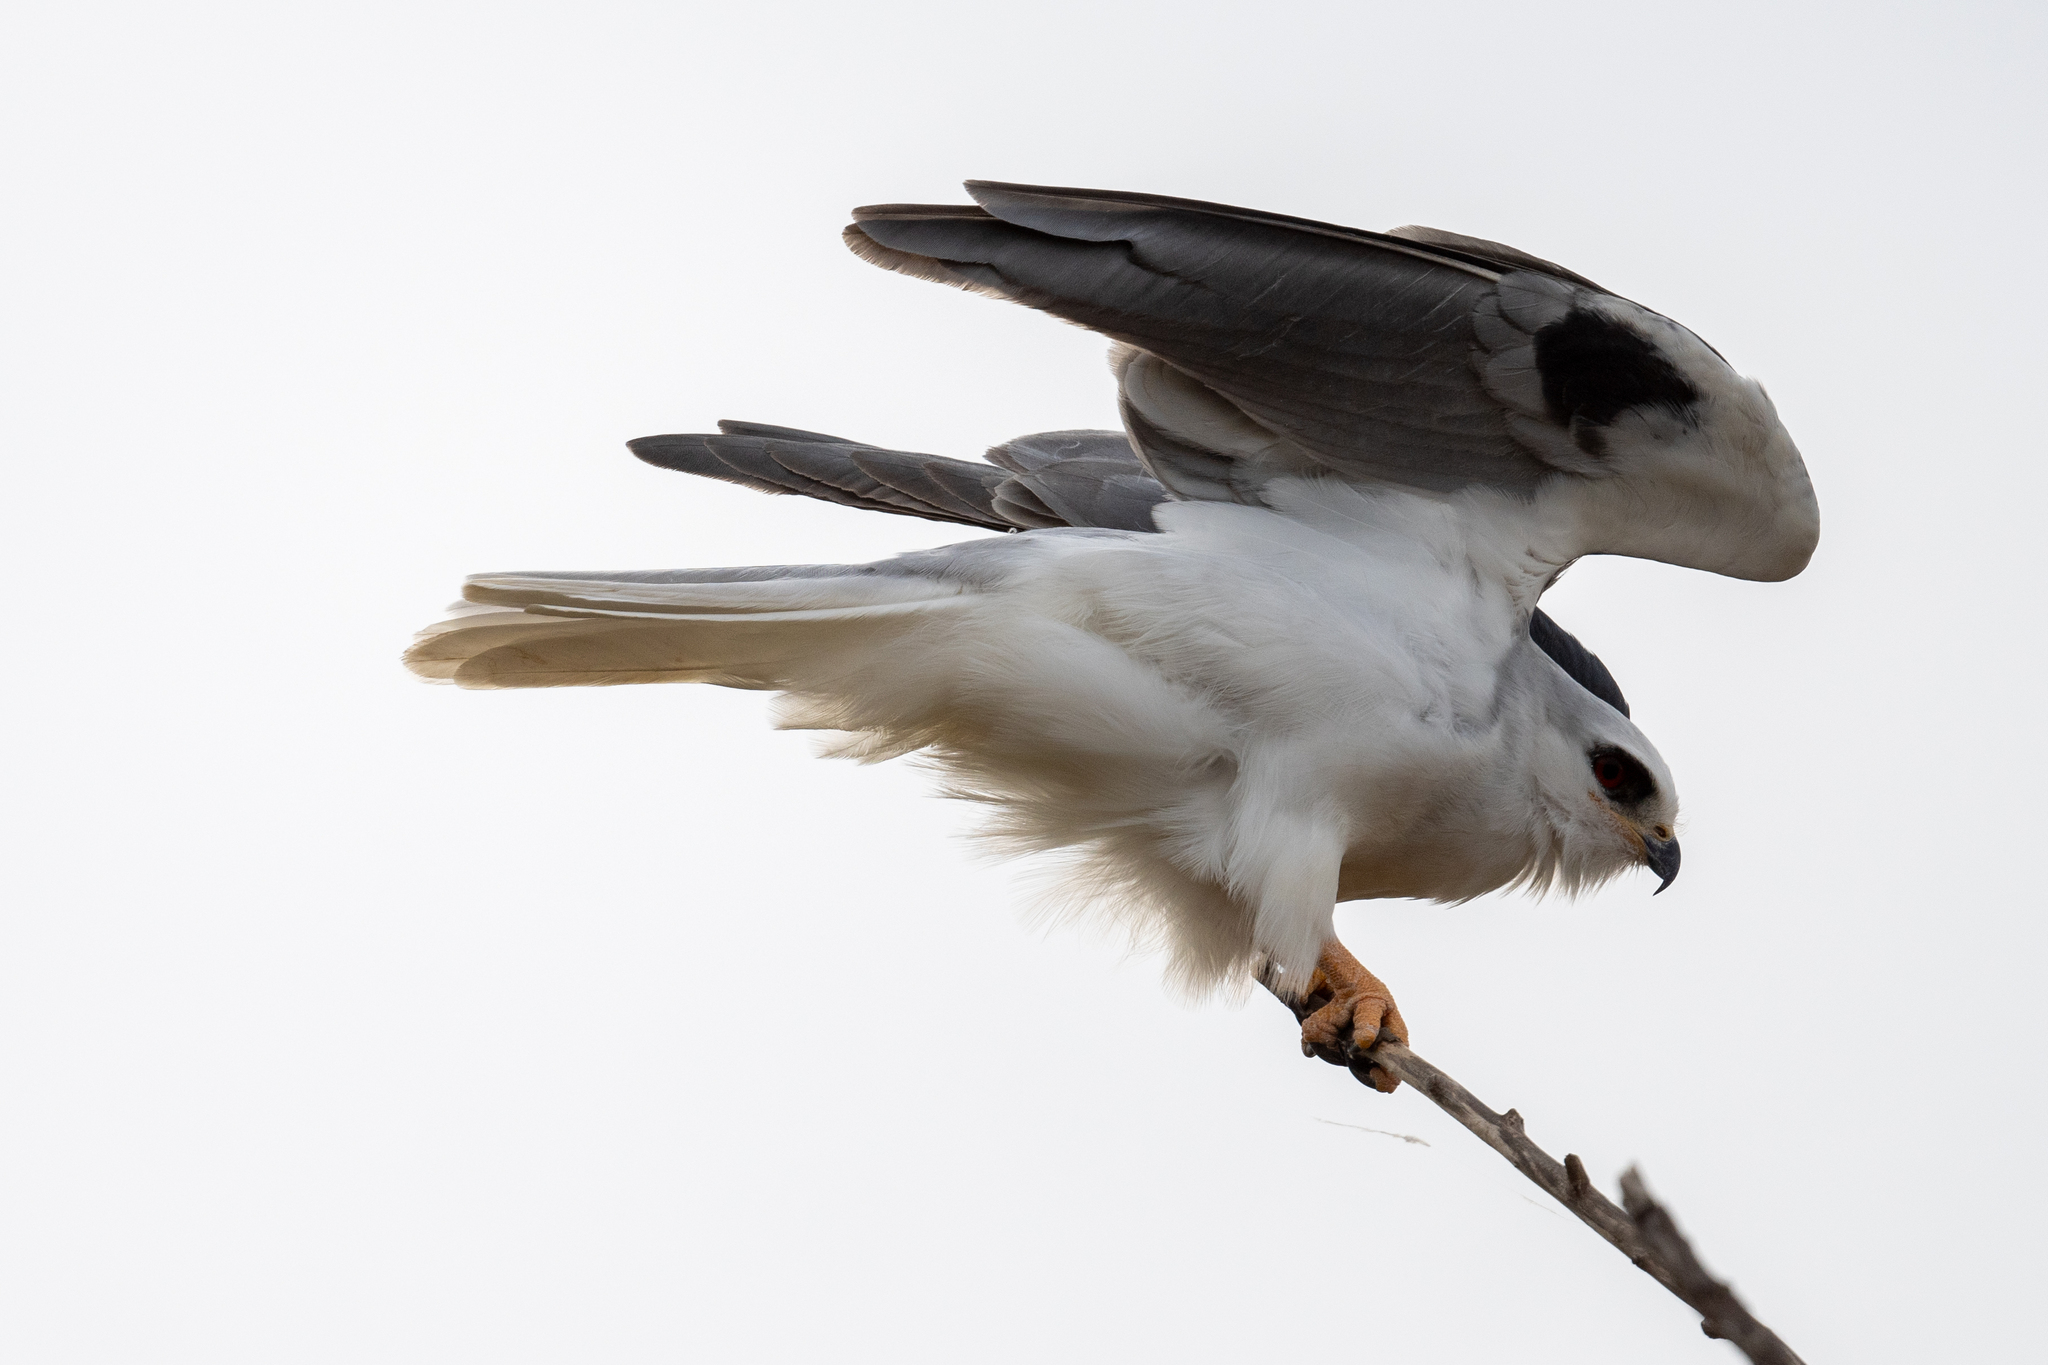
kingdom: Animalia
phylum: Chordata
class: Aves
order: Accipitriformes
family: Accipitridae
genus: Elanus
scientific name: Elanus leucurus
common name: White-tailed kite
